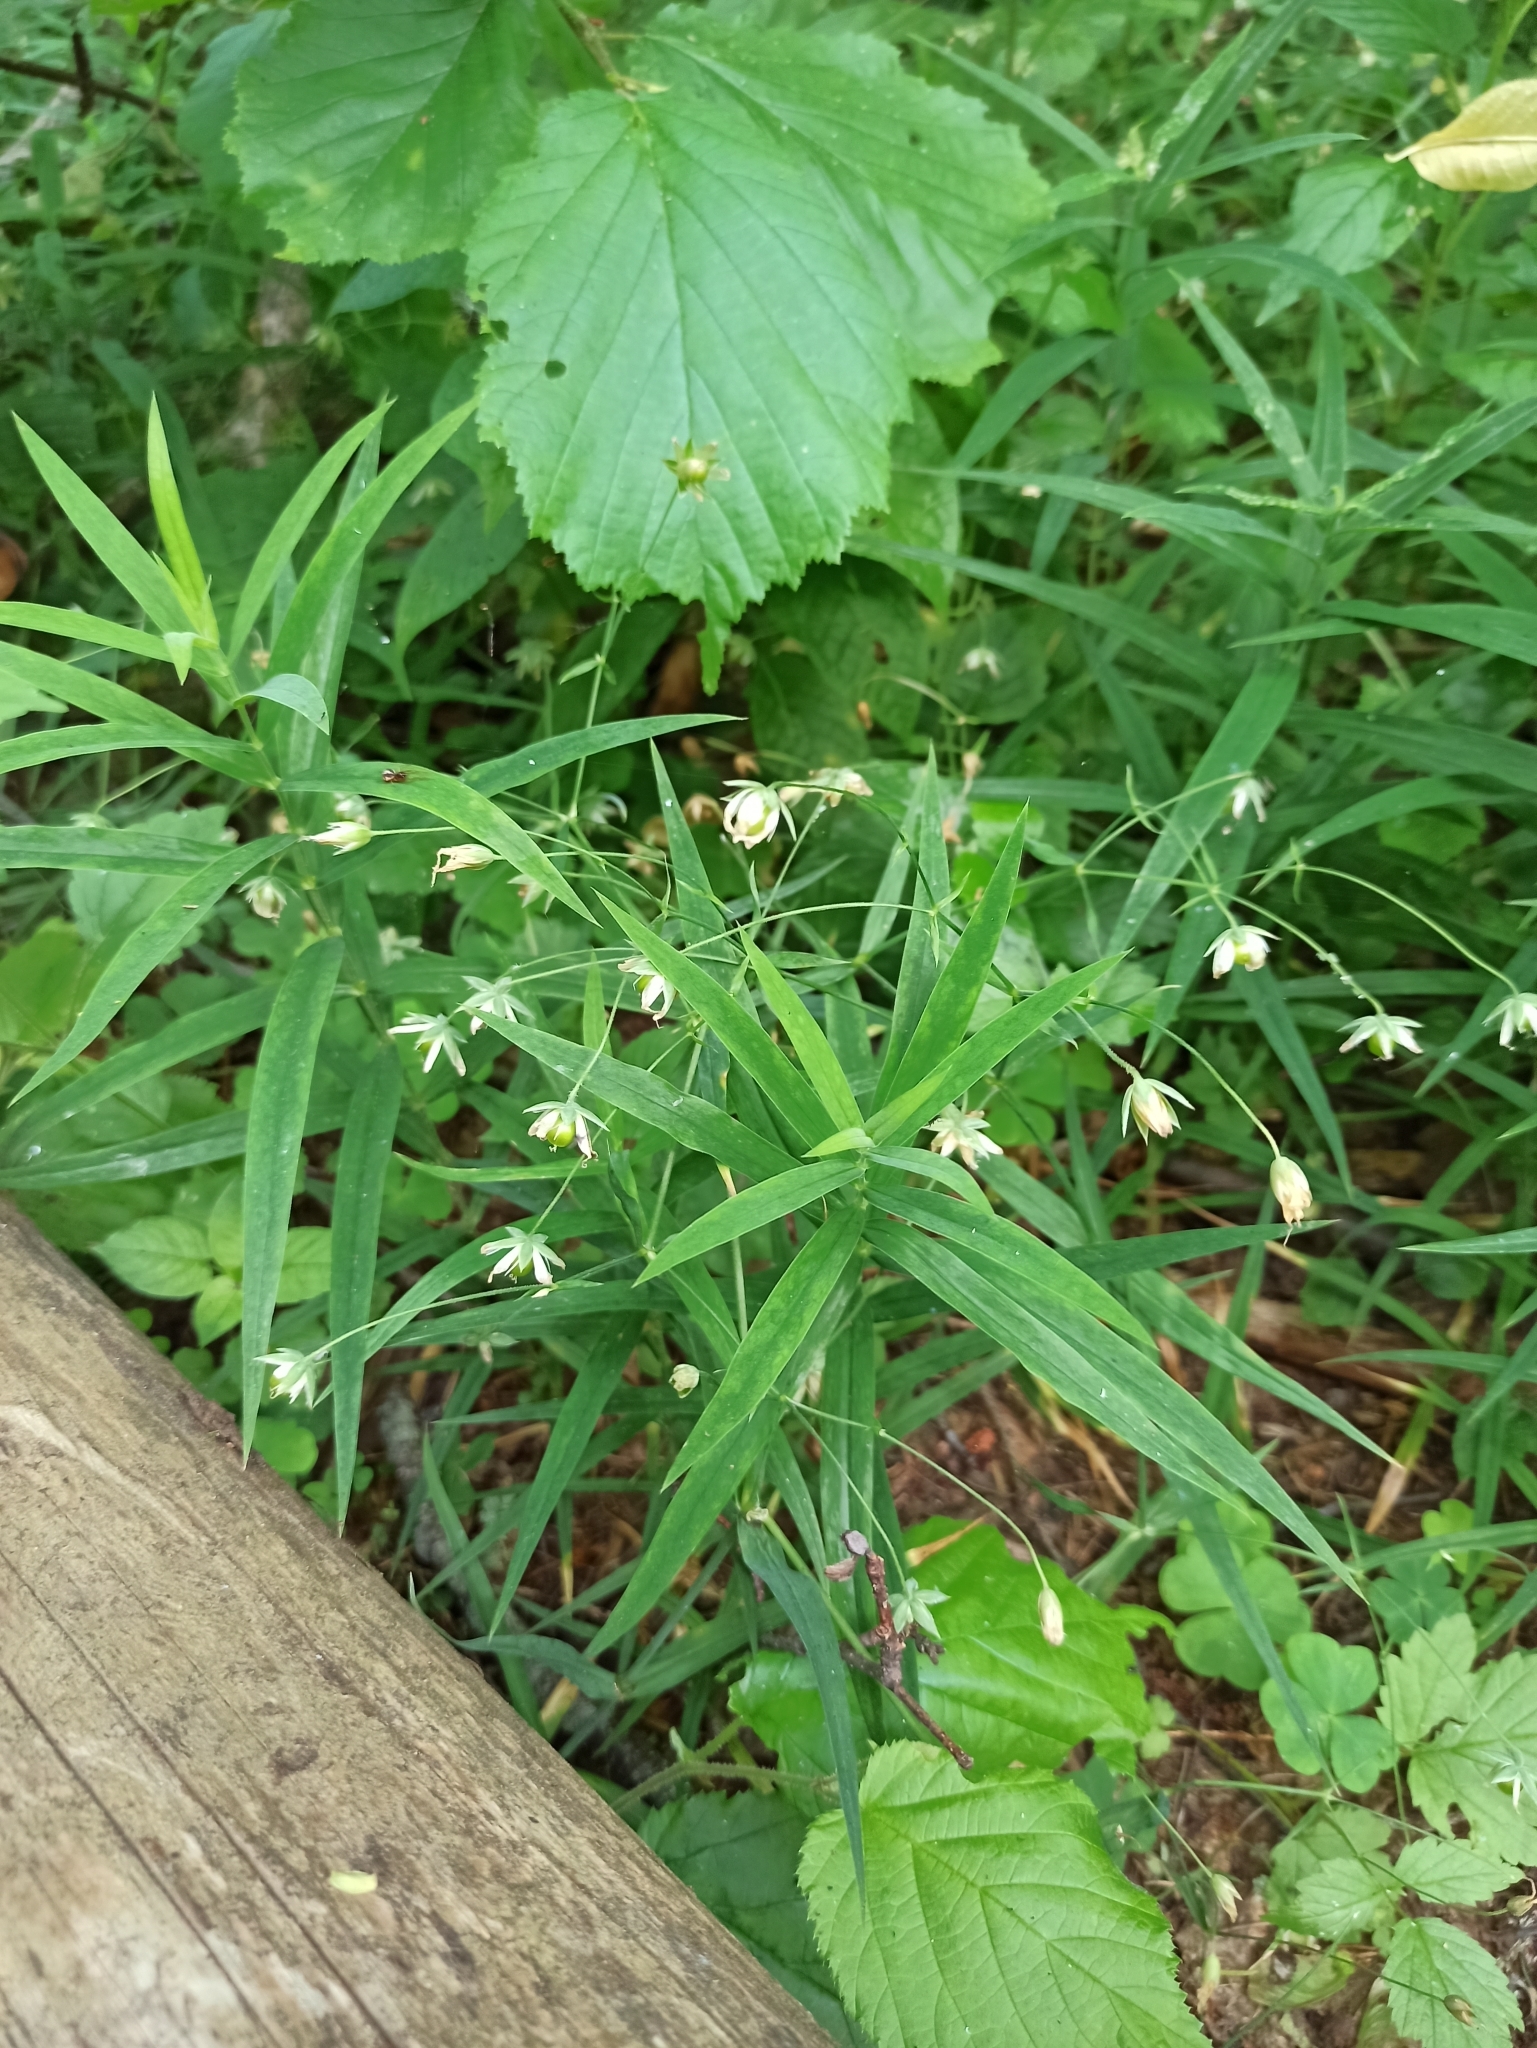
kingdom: Plantae
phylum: Tracheophyta
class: Magnoliopsida
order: Caryophyllales
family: Caryophyllaceae
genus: Rabelera
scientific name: Rabelera holostea
